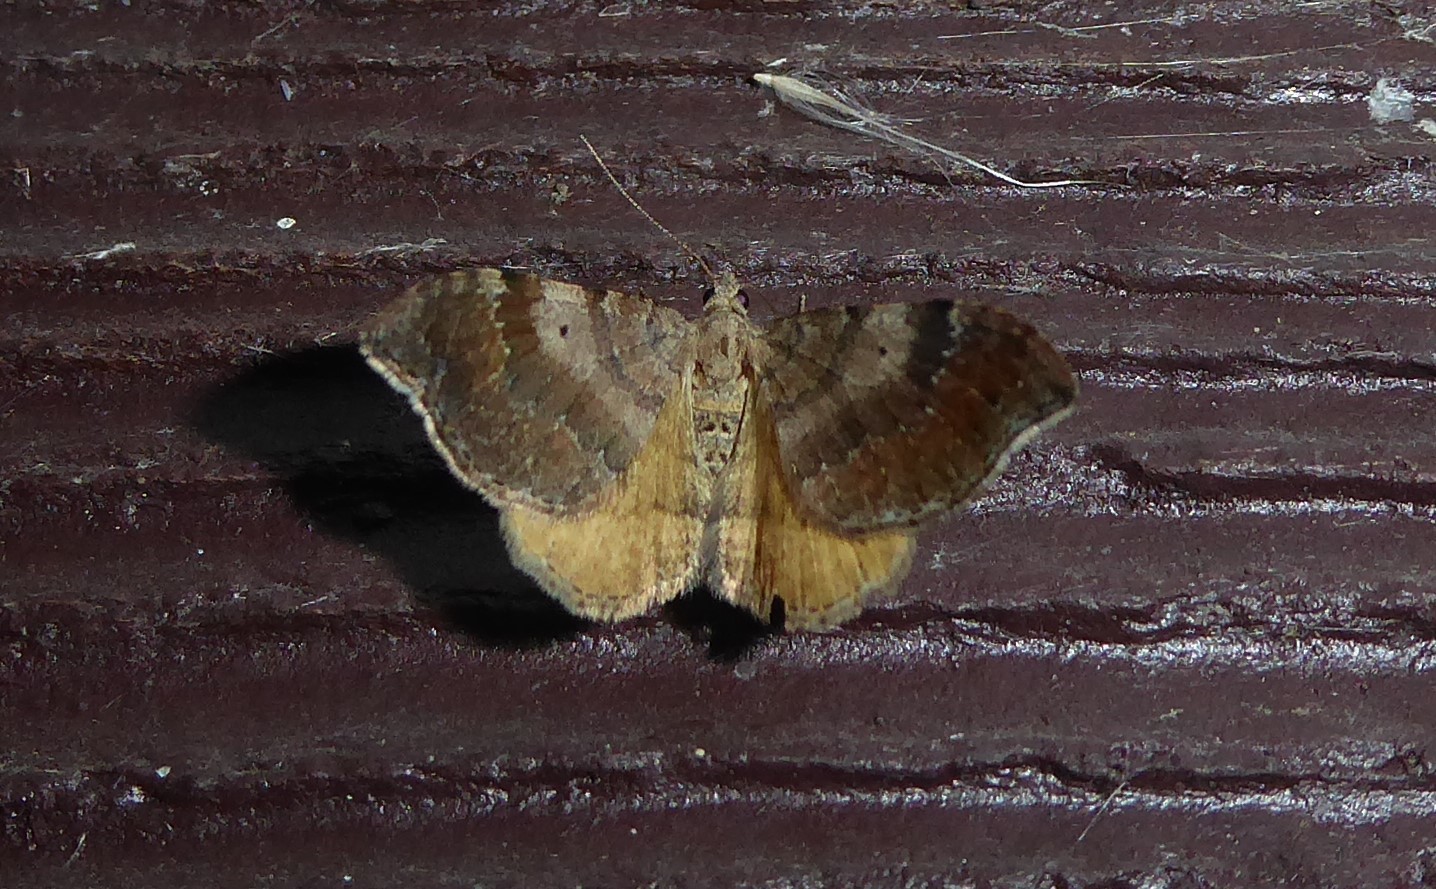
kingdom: Animalia
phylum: Arthropoda
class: Insecta
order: Lepidoptera
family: Geometridae
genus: Homodotis
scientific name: Homodotis megaspilata
